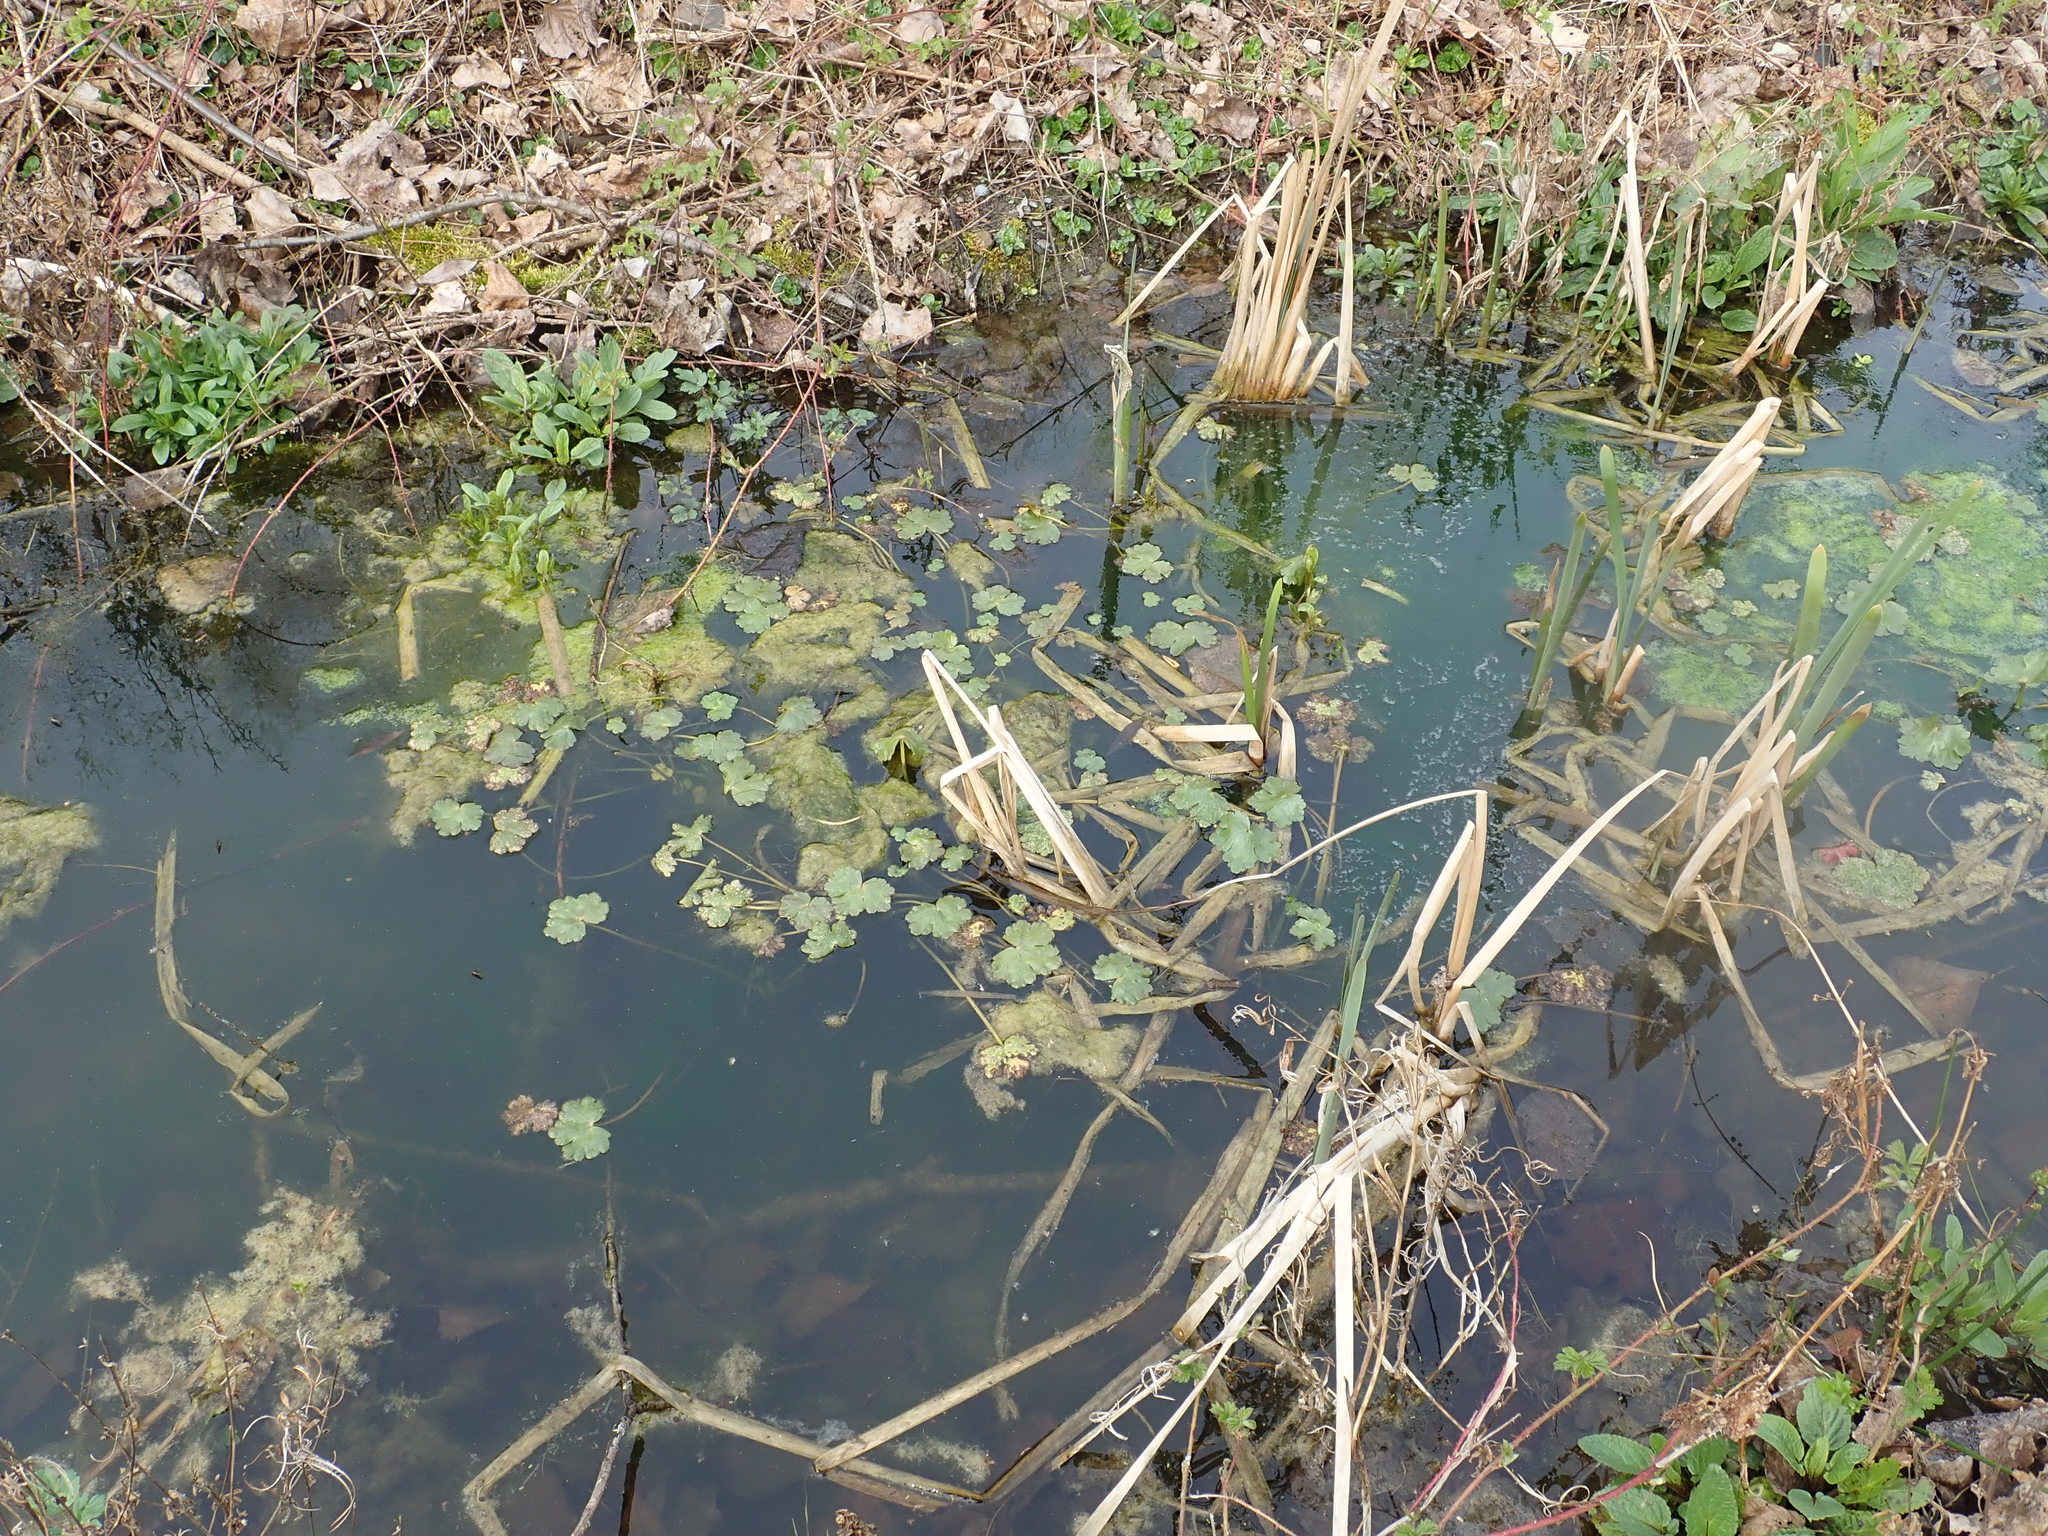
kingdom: Plantae
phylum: Tracheophyta
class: Magnoliopsida
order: Ranunculales
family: Ranunculaceae
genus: Ranunculus
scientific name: Ranunculus sceleratus
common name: Celery-leaved buttercup
